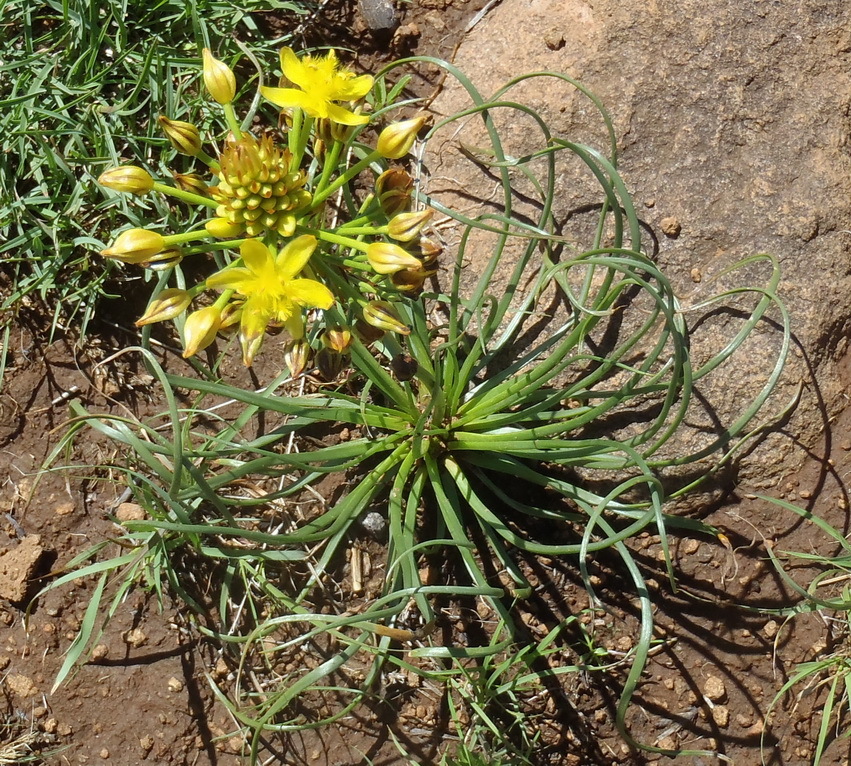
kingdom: Plantae
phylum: Tracheophyta
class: Liliopsida
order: Asparagales
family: Asphodelaceae
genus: Bulbine
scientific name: Bulbine abyssinica
